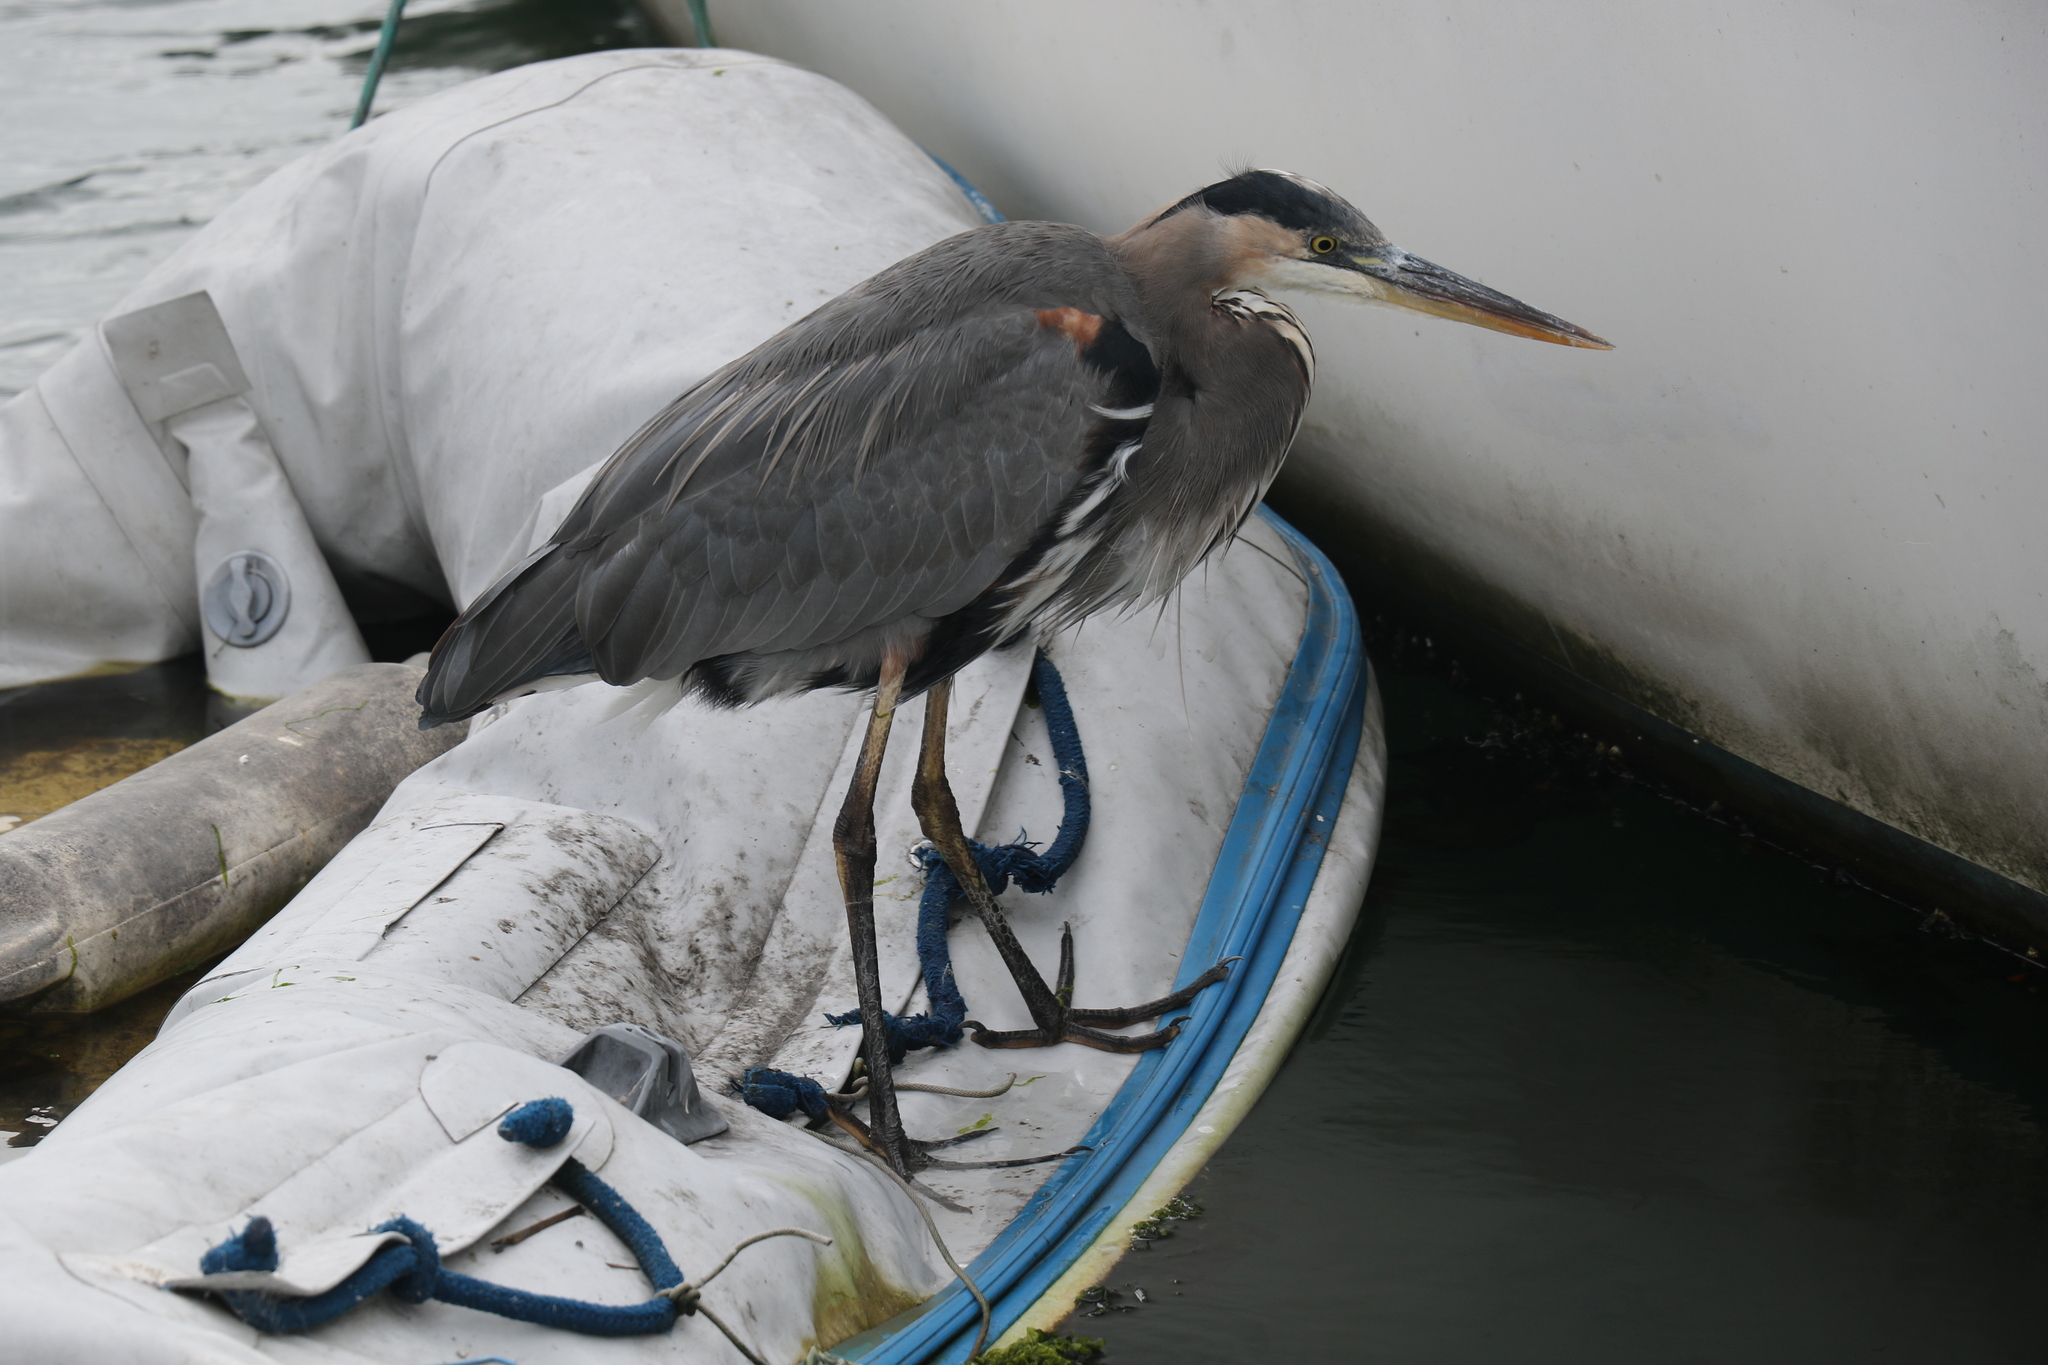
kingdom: Animalia
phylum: Chordata
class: Aves
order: Pelecaniformes
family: Ardeidae
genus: Ardea
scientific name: Ardea herodias
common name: Great blue heron
